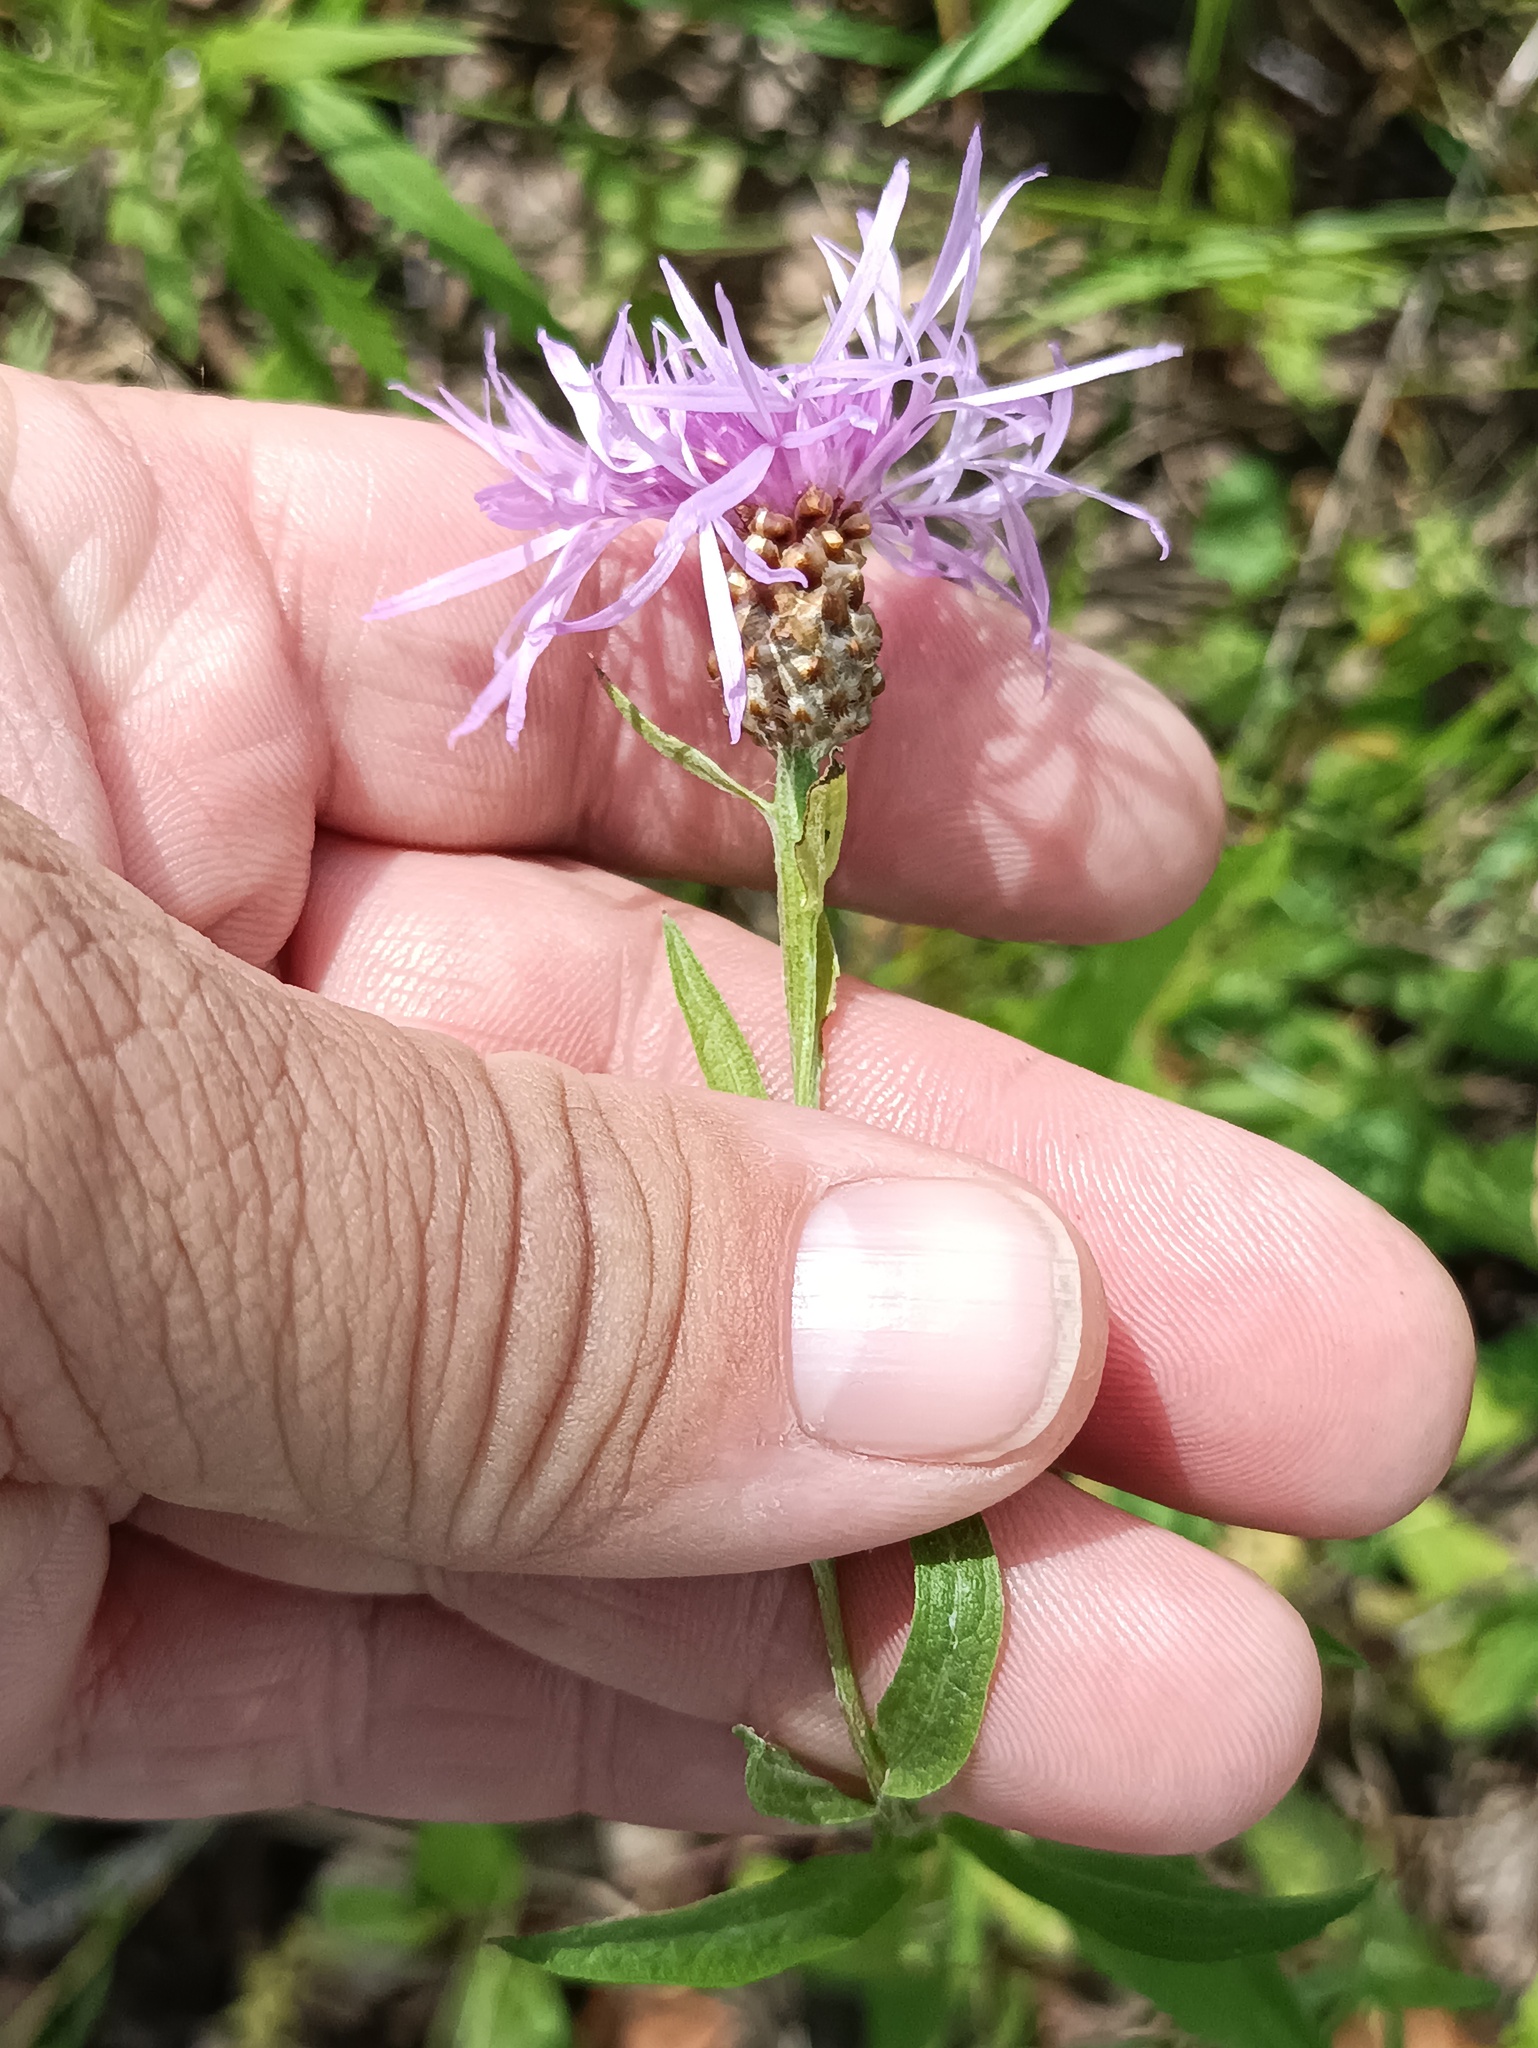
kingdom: Plantae
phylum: Tracheophyta
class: Magnoliopsida
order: Asterales
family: Asteraceae
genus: Centaurea
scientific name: Centaurea jacea
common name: Brown knapweed
